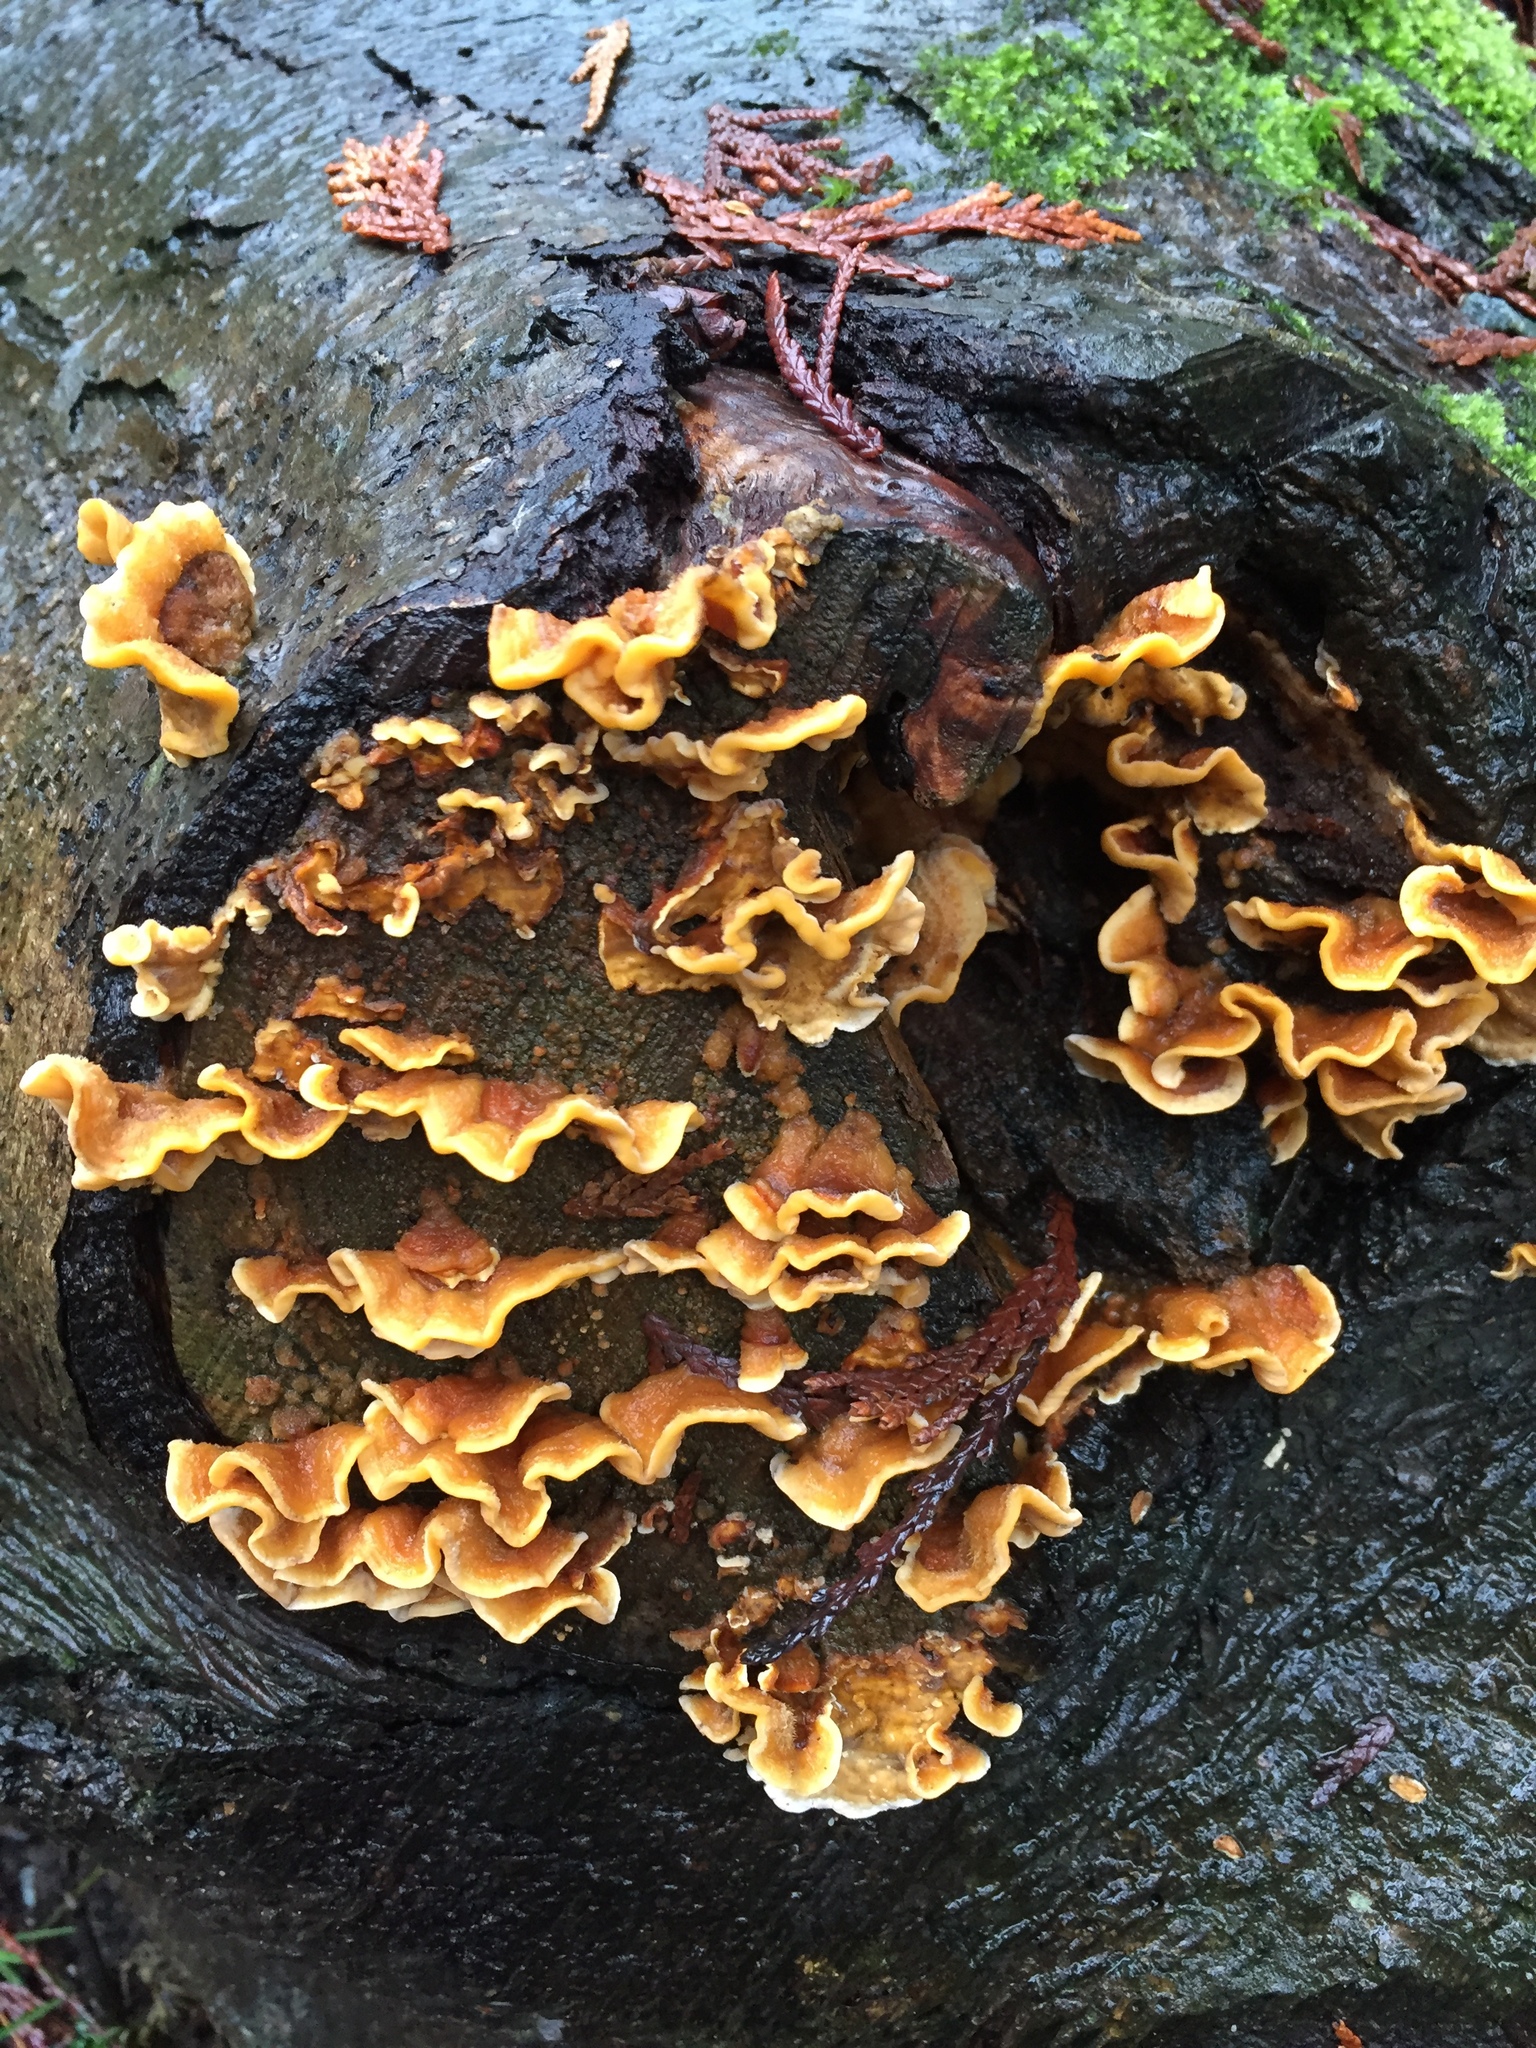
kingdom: Fungi
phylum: Basidiomycota
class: Agaricomycetes
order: Russulales
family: Stereaceae
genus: Stereum
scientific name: Stereum hirsutum
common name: Hairy curtain crust
